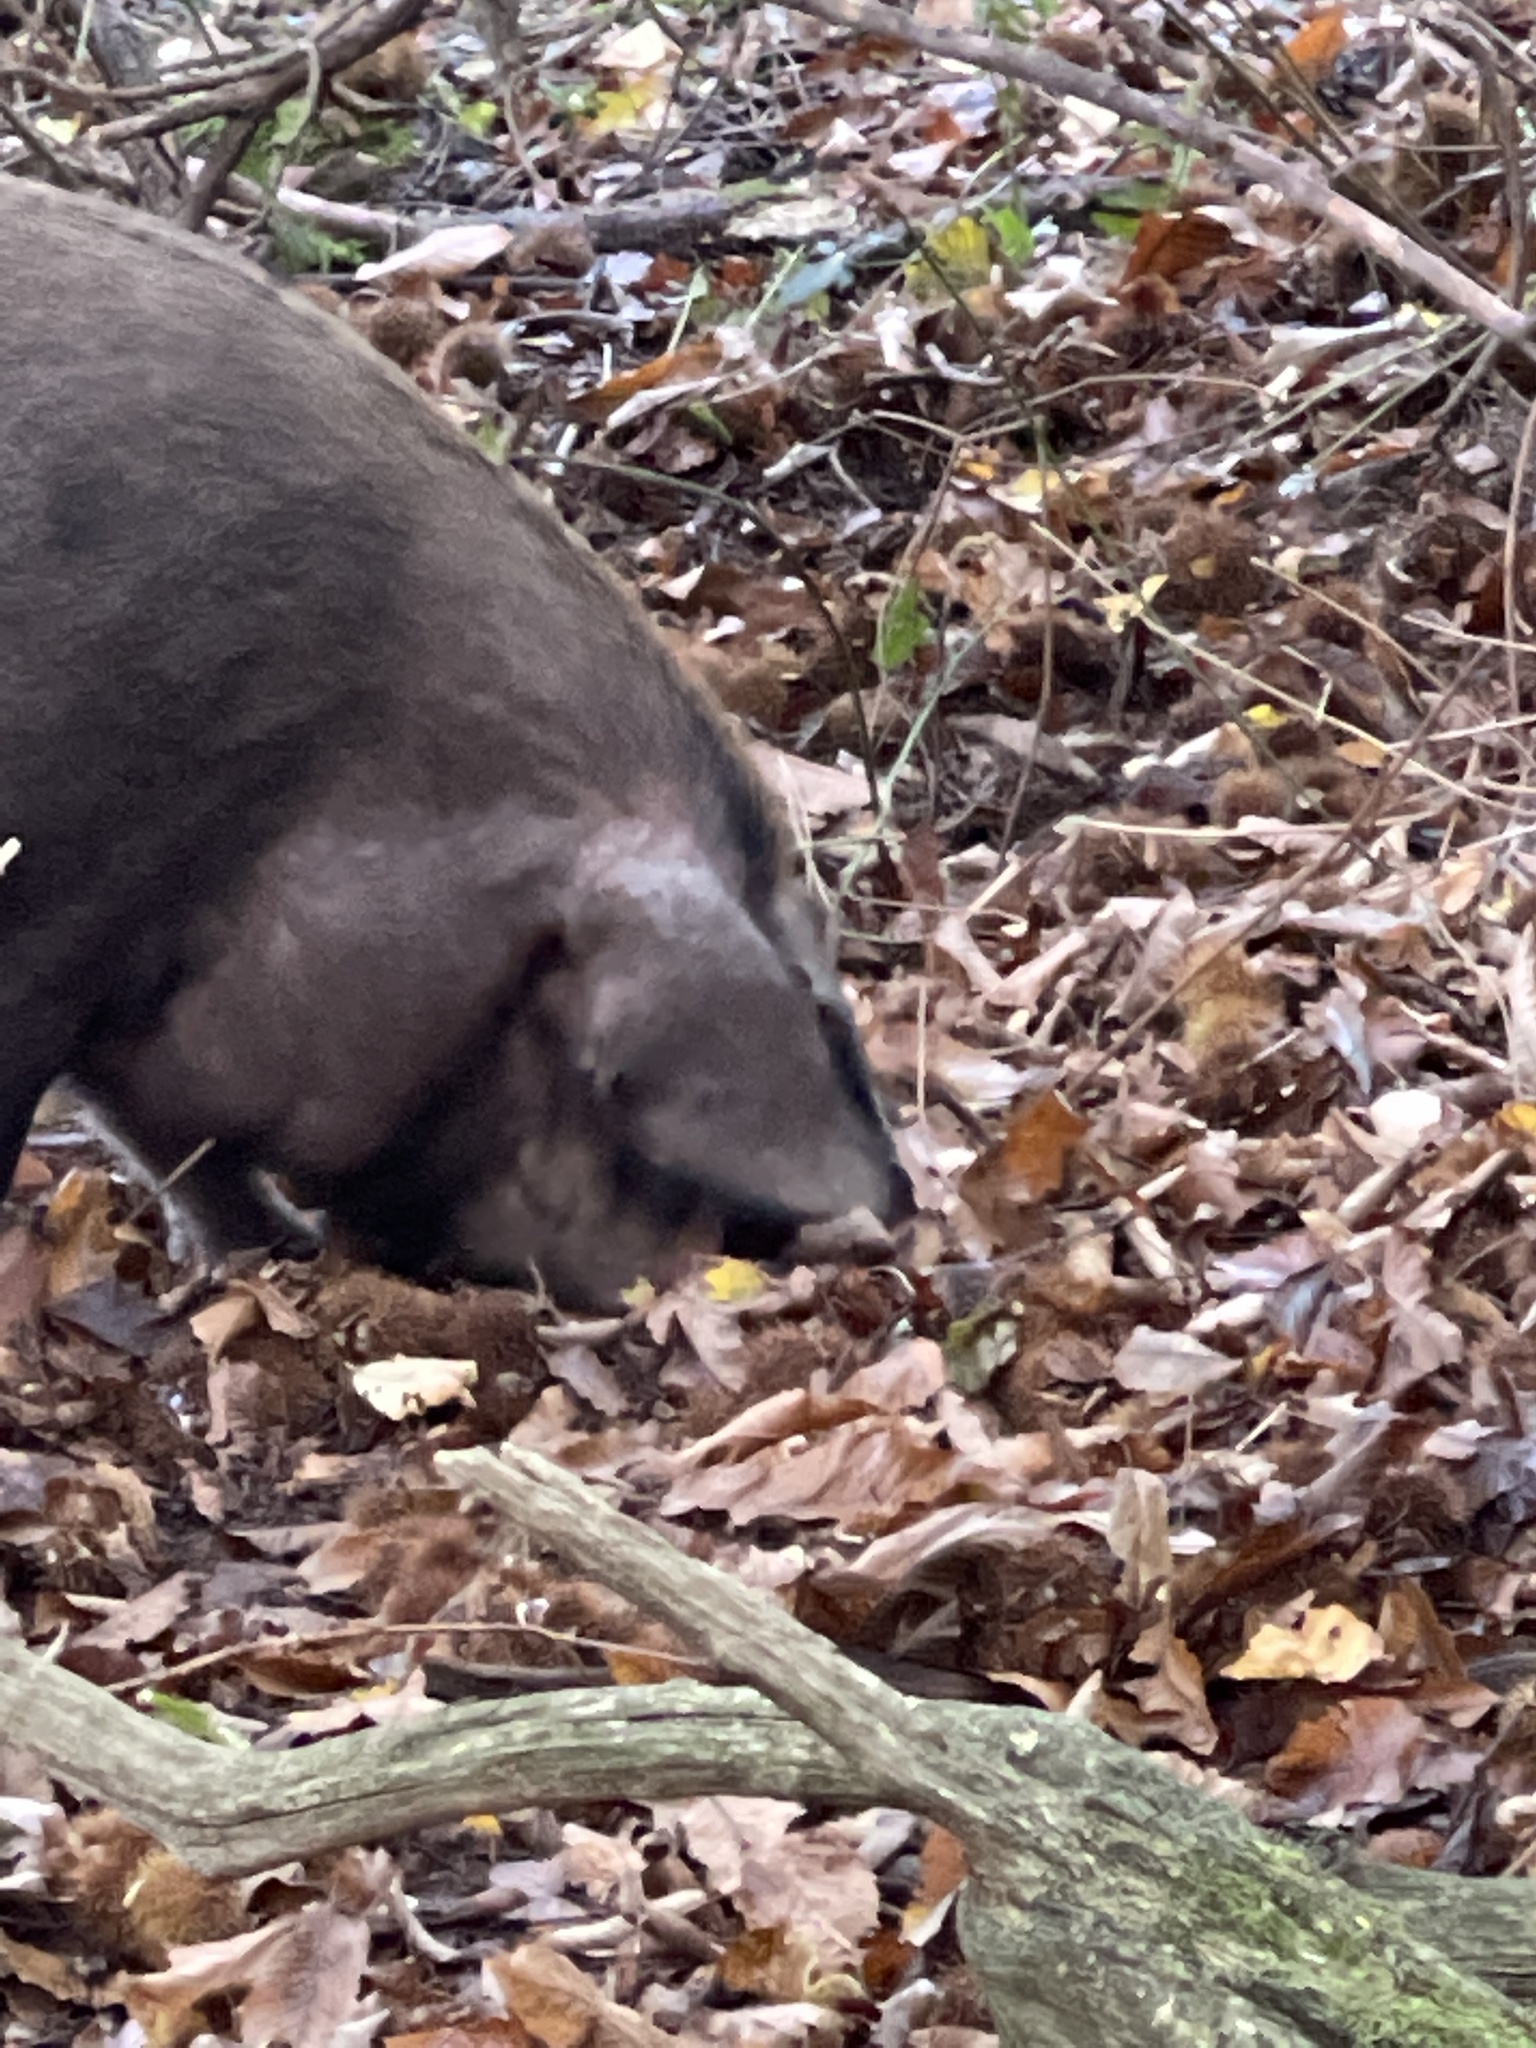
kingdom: Animalia
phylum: Chordata
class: Mammalia
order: Artiodactyla
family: Suidae
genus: Sus
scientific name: Sus scrofa
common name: Wild boar
